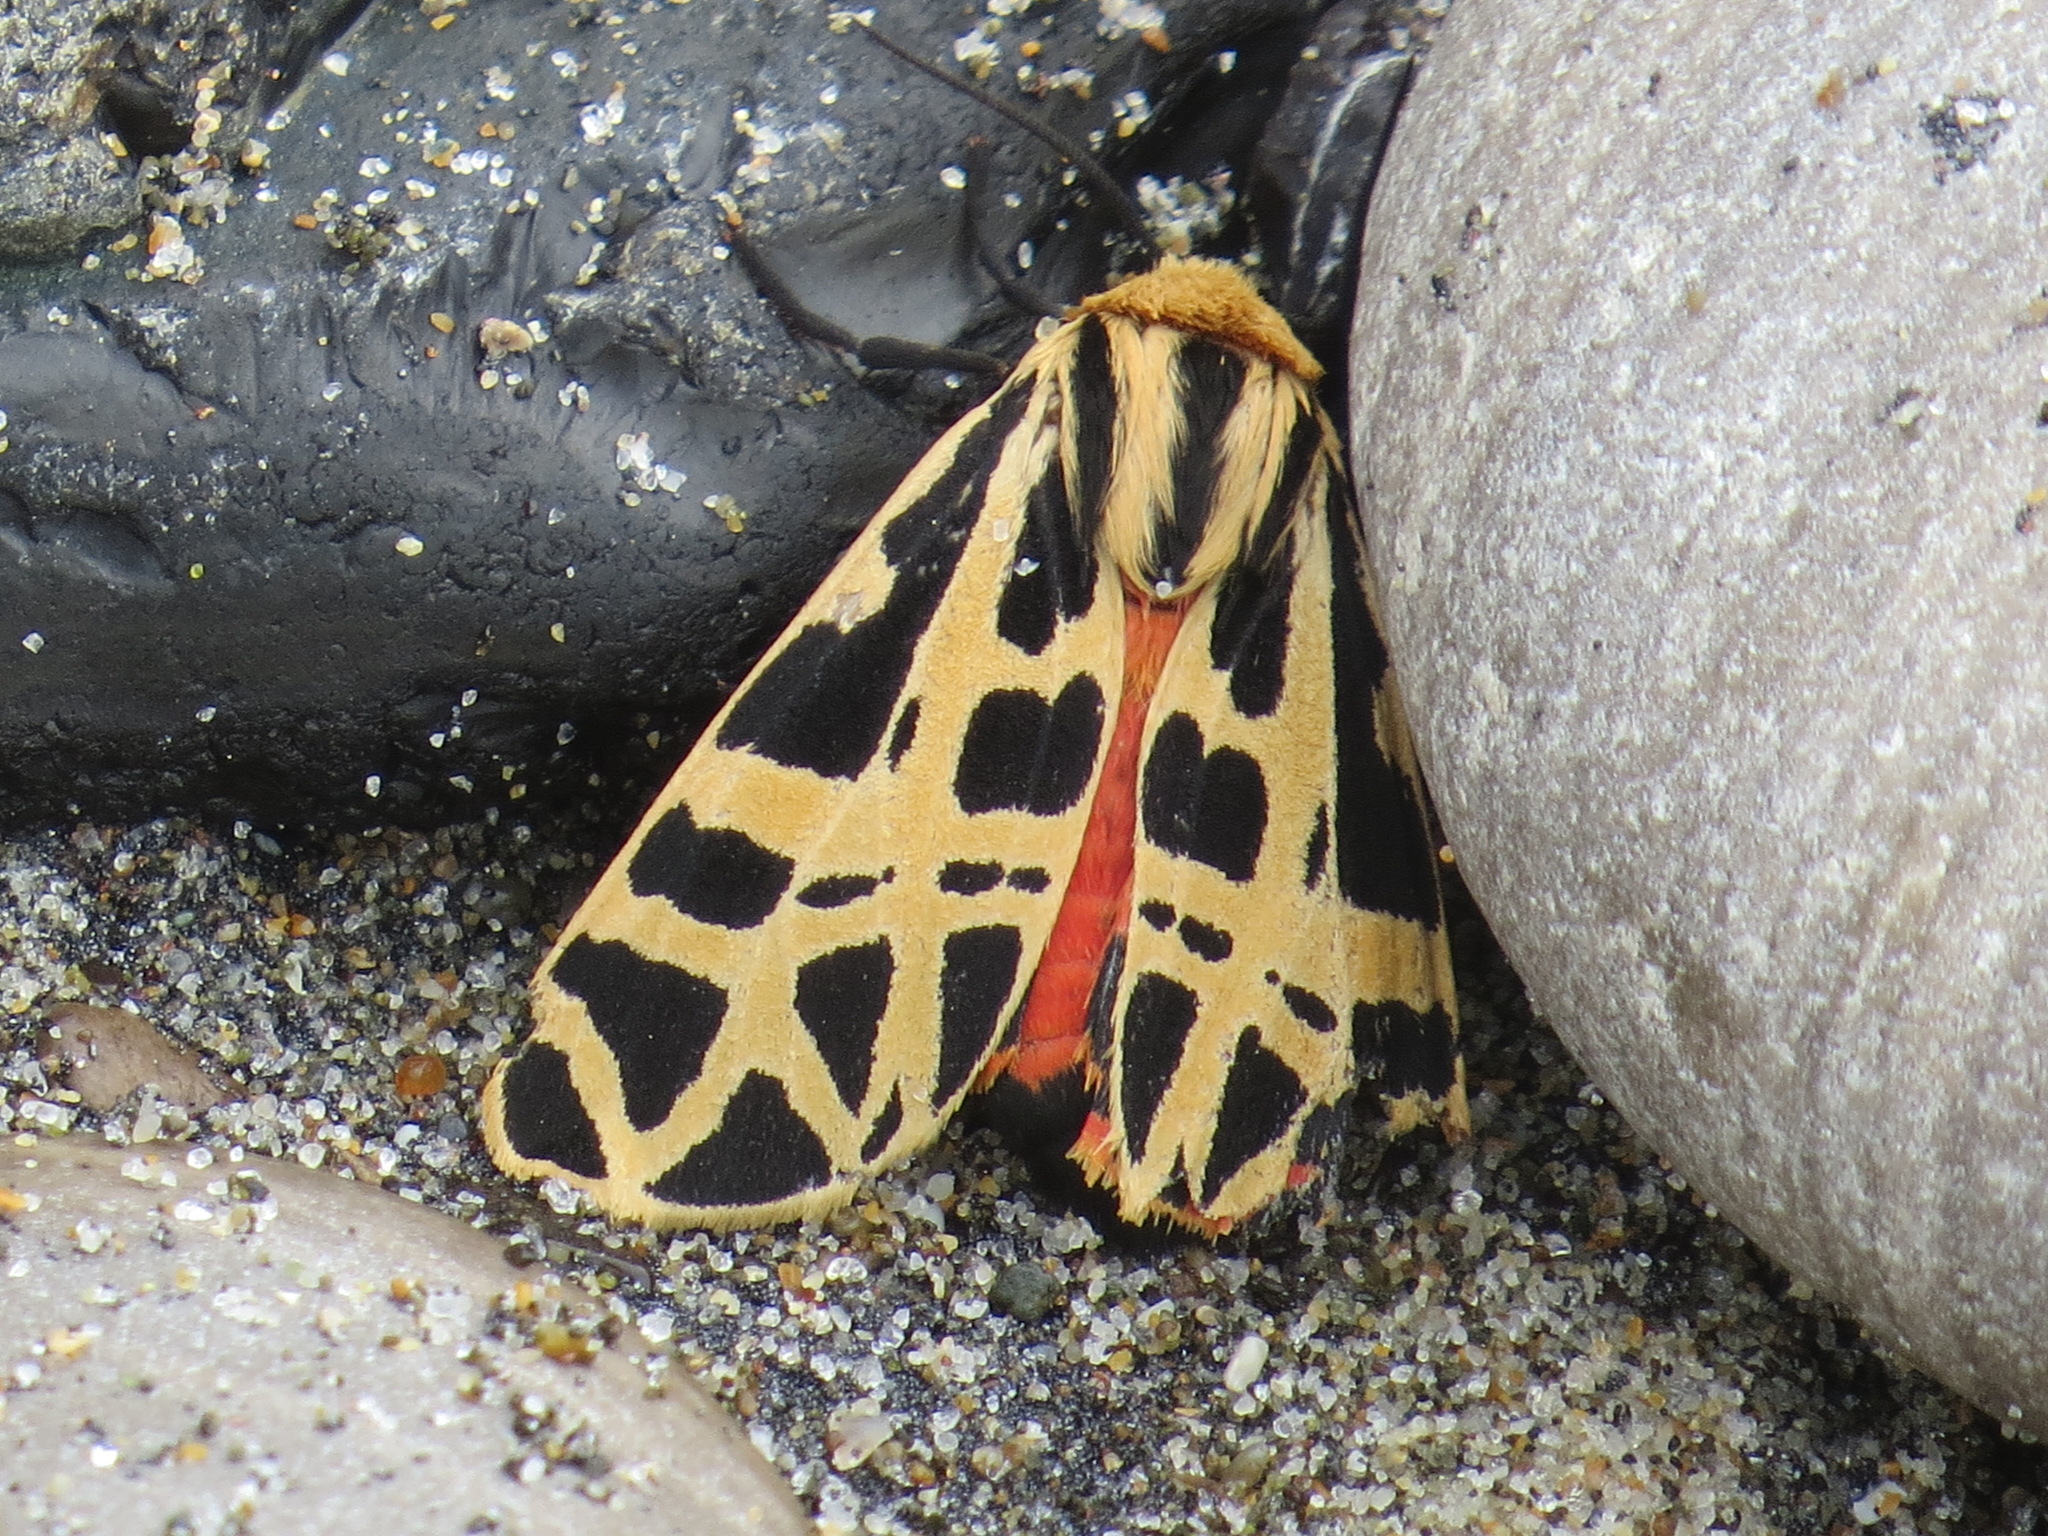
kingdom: Animalia
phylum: Arthropoda
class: Insecta
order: Lepidoptera
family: Erebidae
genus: Apantesis
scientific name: Apantesis
